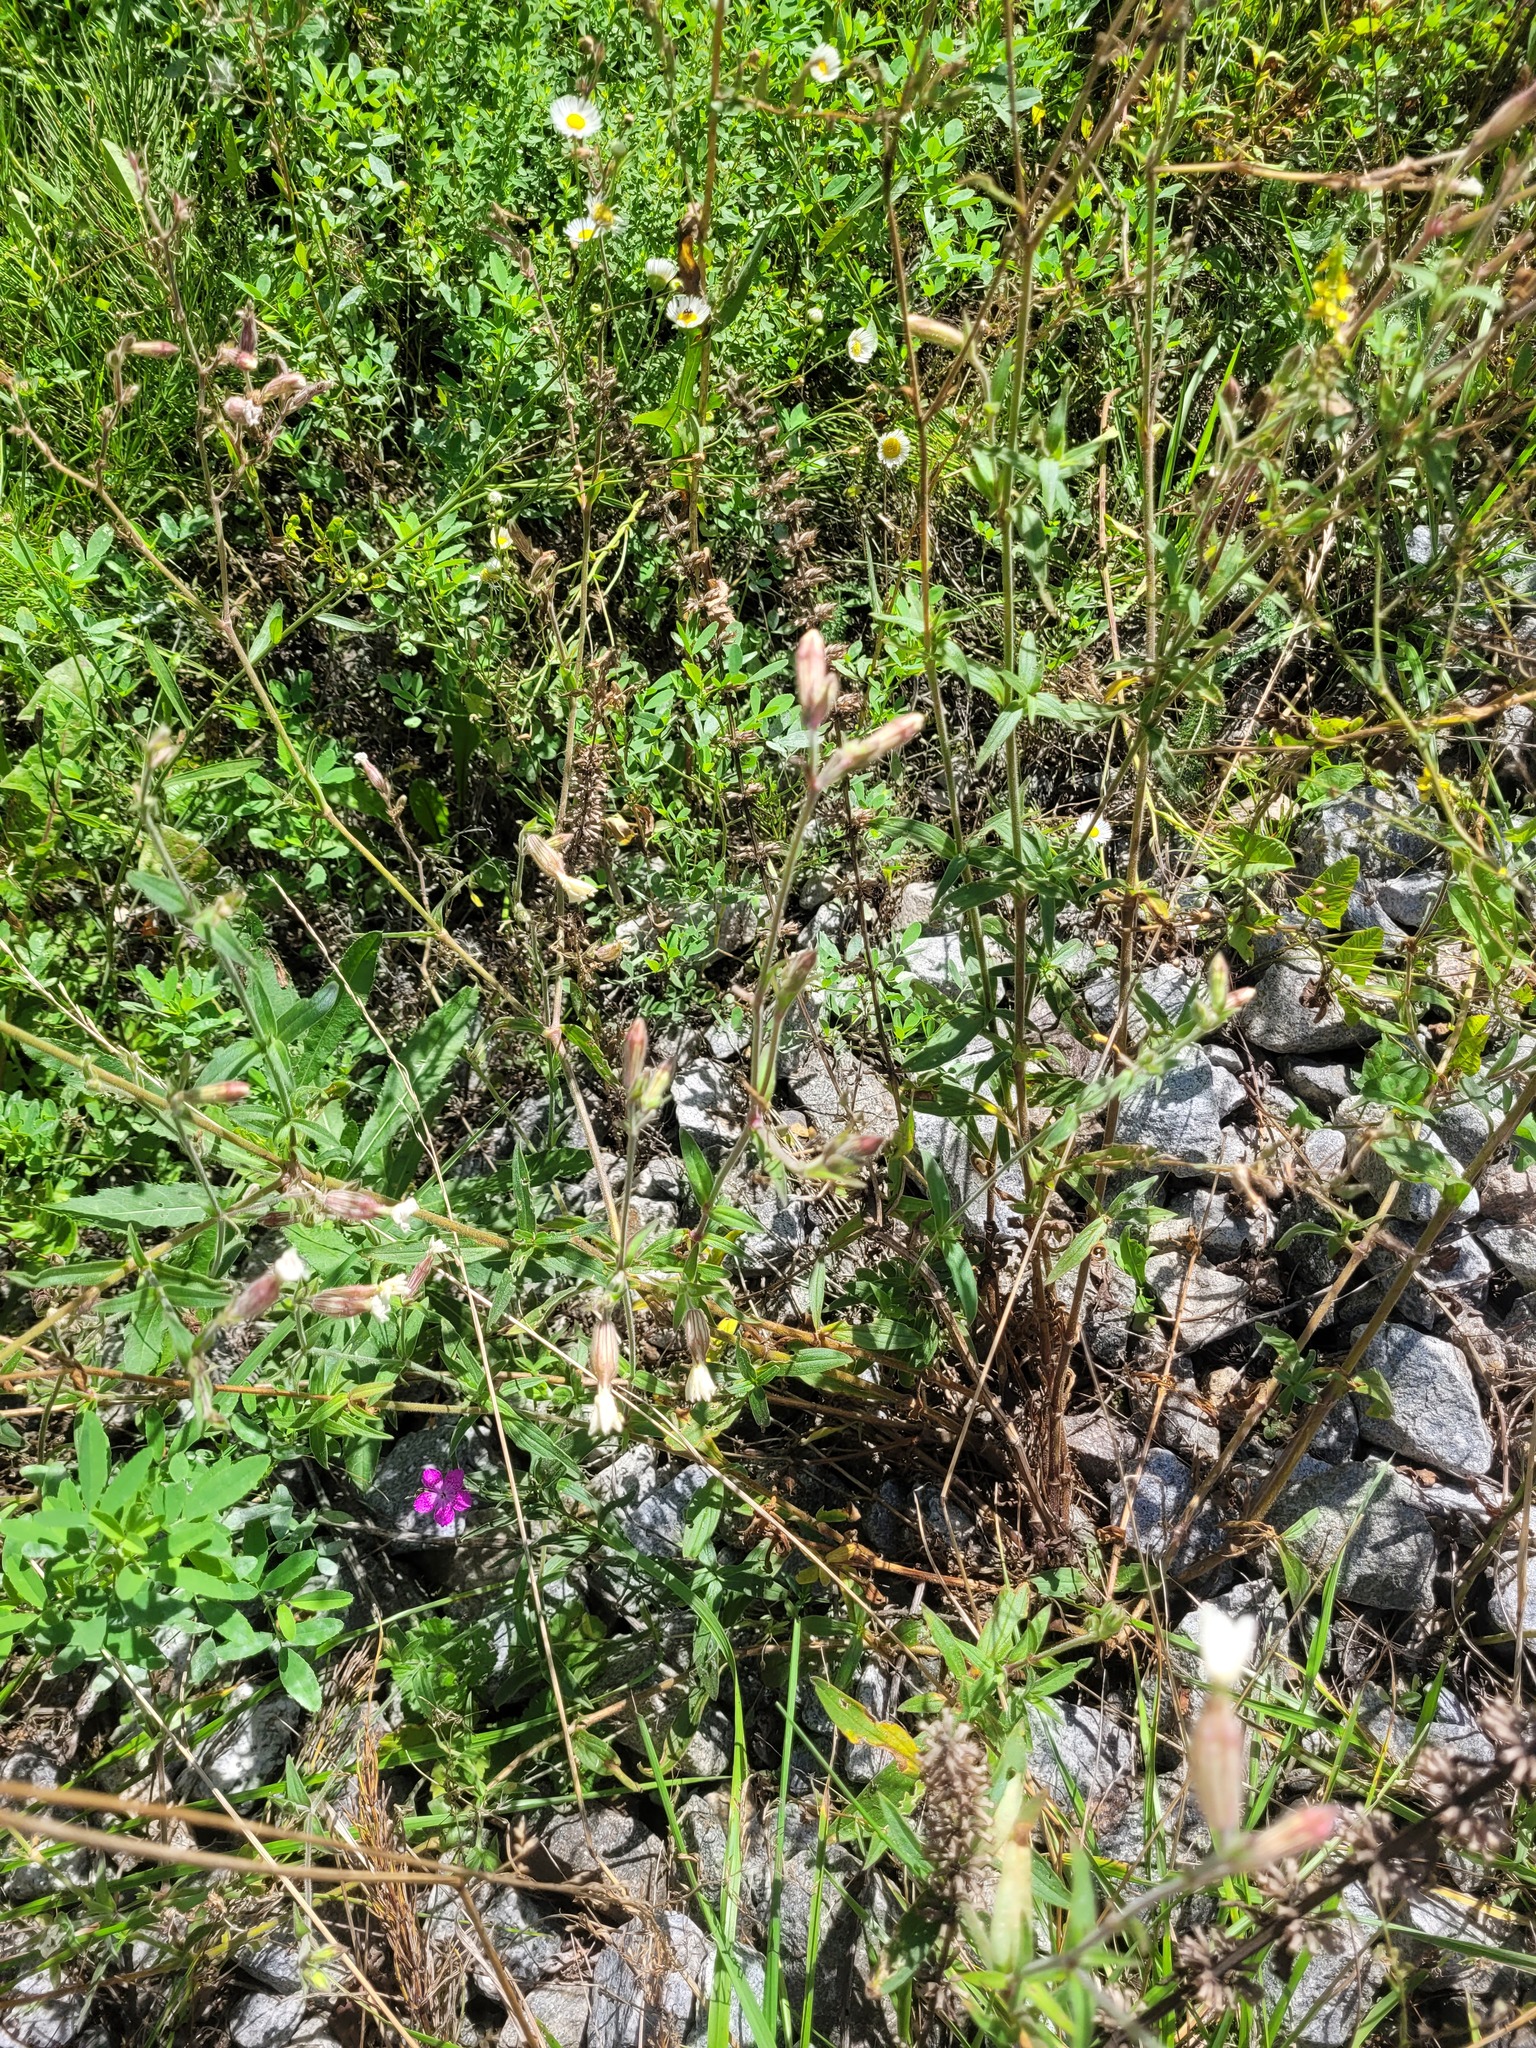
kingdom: Plantae
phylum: Tracheophyta
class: Magnoliopsida
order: Caryophyllales
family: Caryophyllaceae
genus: Silene
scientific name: Silene latifolia
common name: White campion
